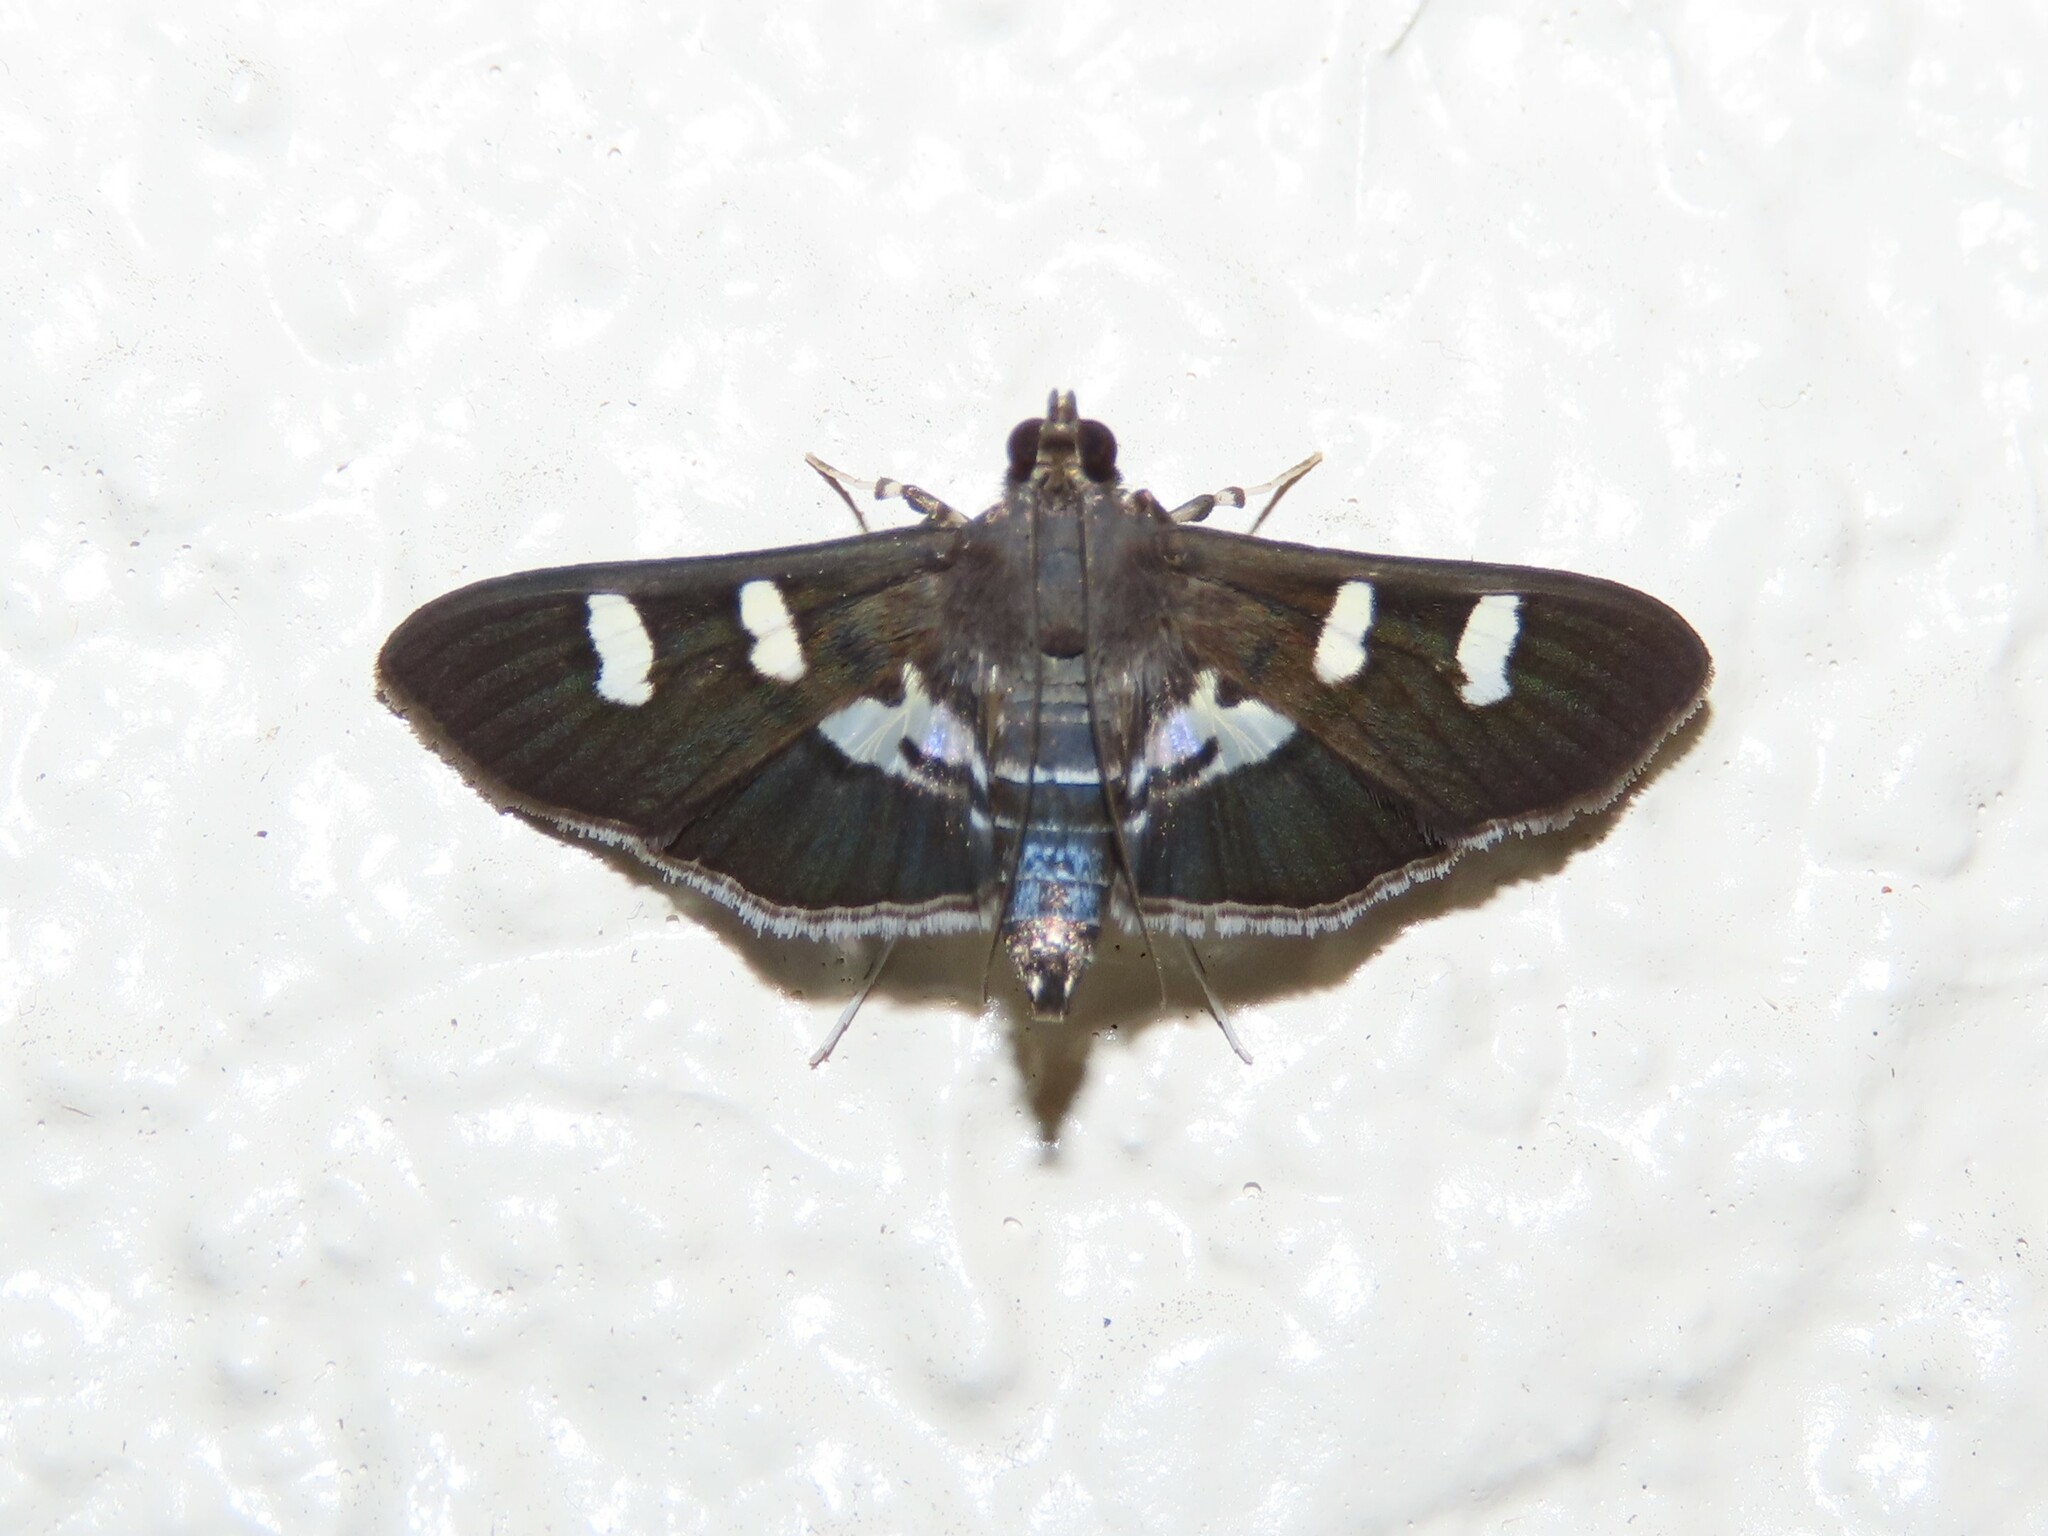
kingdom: Animalia
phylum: Arthropoda
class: Insecta
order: Lepidoptera
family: Crambidae
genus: Desmia
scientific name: Desmia deploralis
